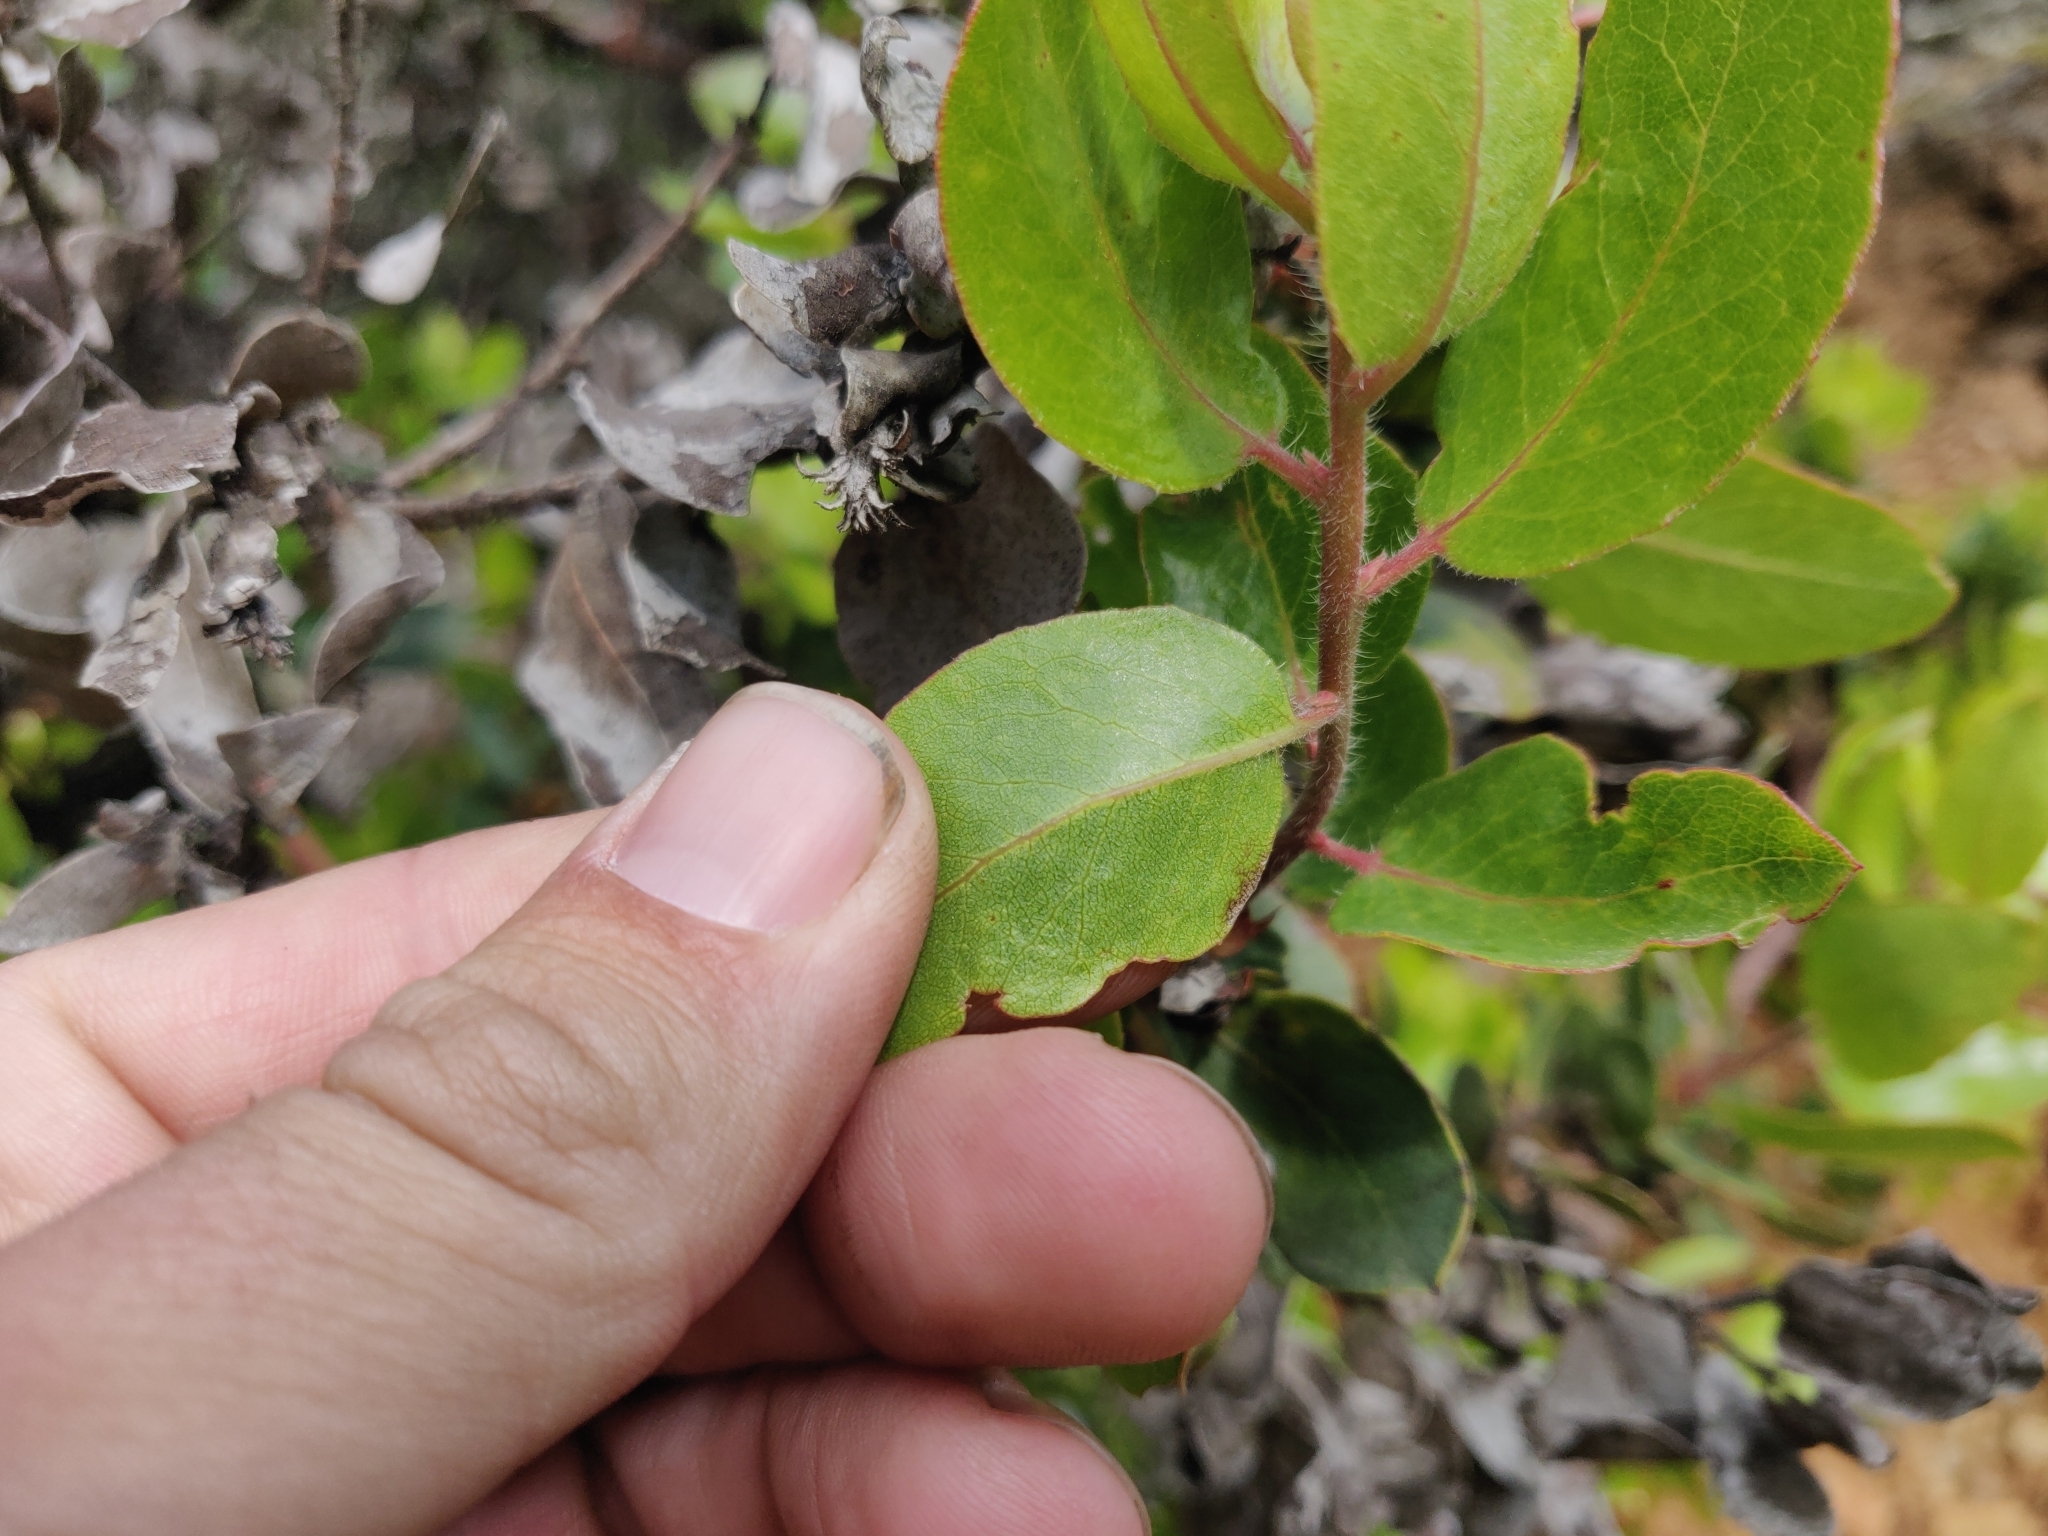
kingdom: Plantae
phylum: Tracheophyta
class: Magnoliopsida
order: Ericales
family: Ericaceae
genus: Arctostaphylos
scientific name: Arctostaphylos crustacea
